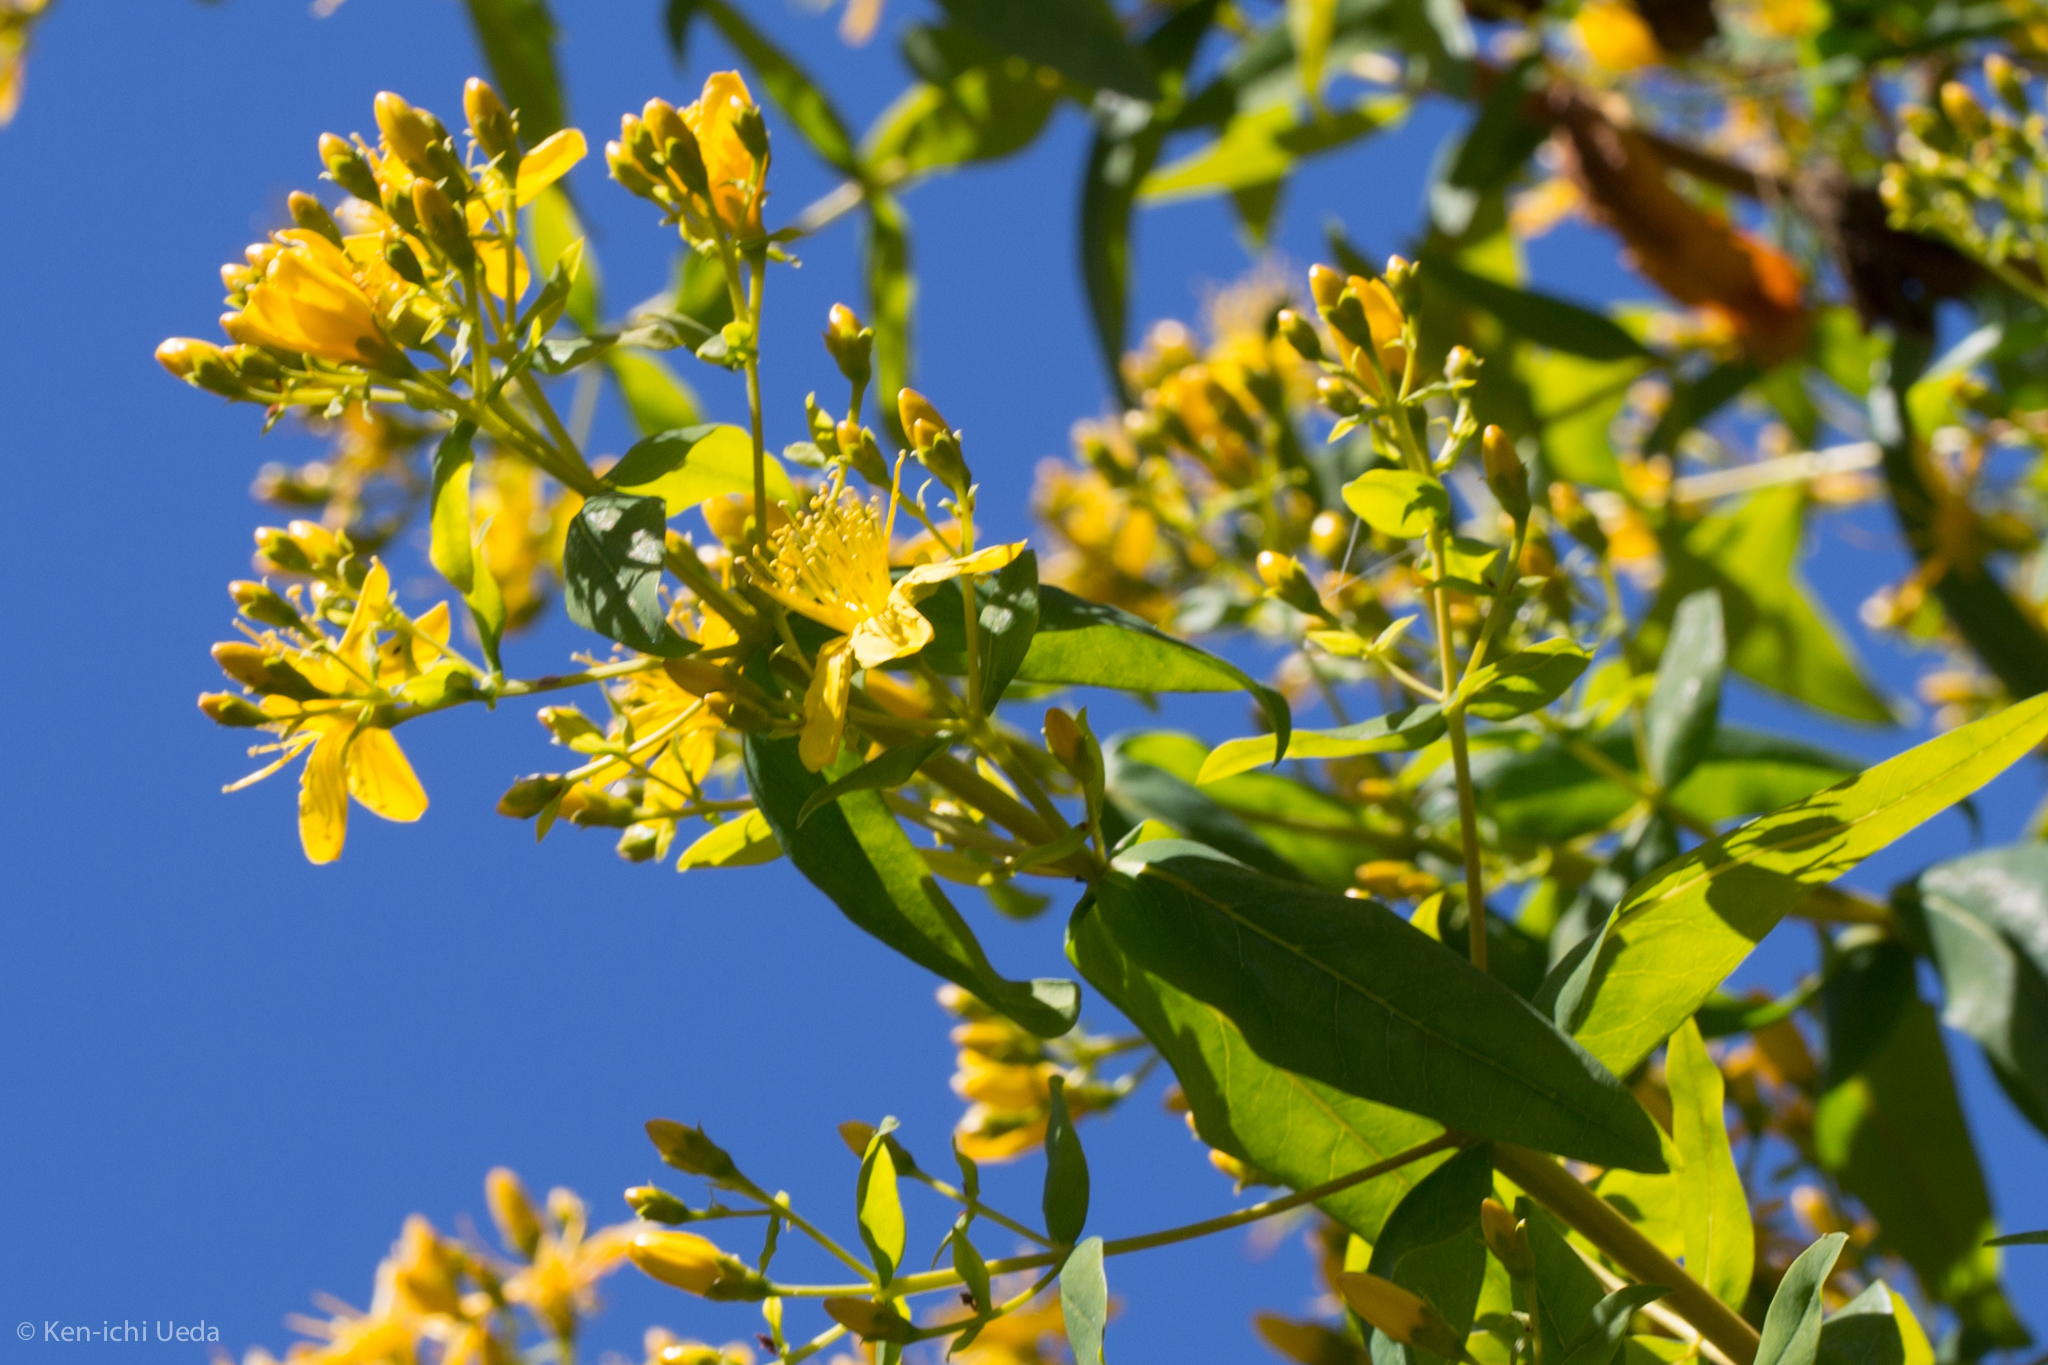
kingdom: Plantae
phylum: Tracheophyta
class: Magnoliopsida
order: Malpighiales
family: Hypericaceae
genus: Hypericum
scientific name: Hypericum canariense
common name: Canary island st. johnswort
